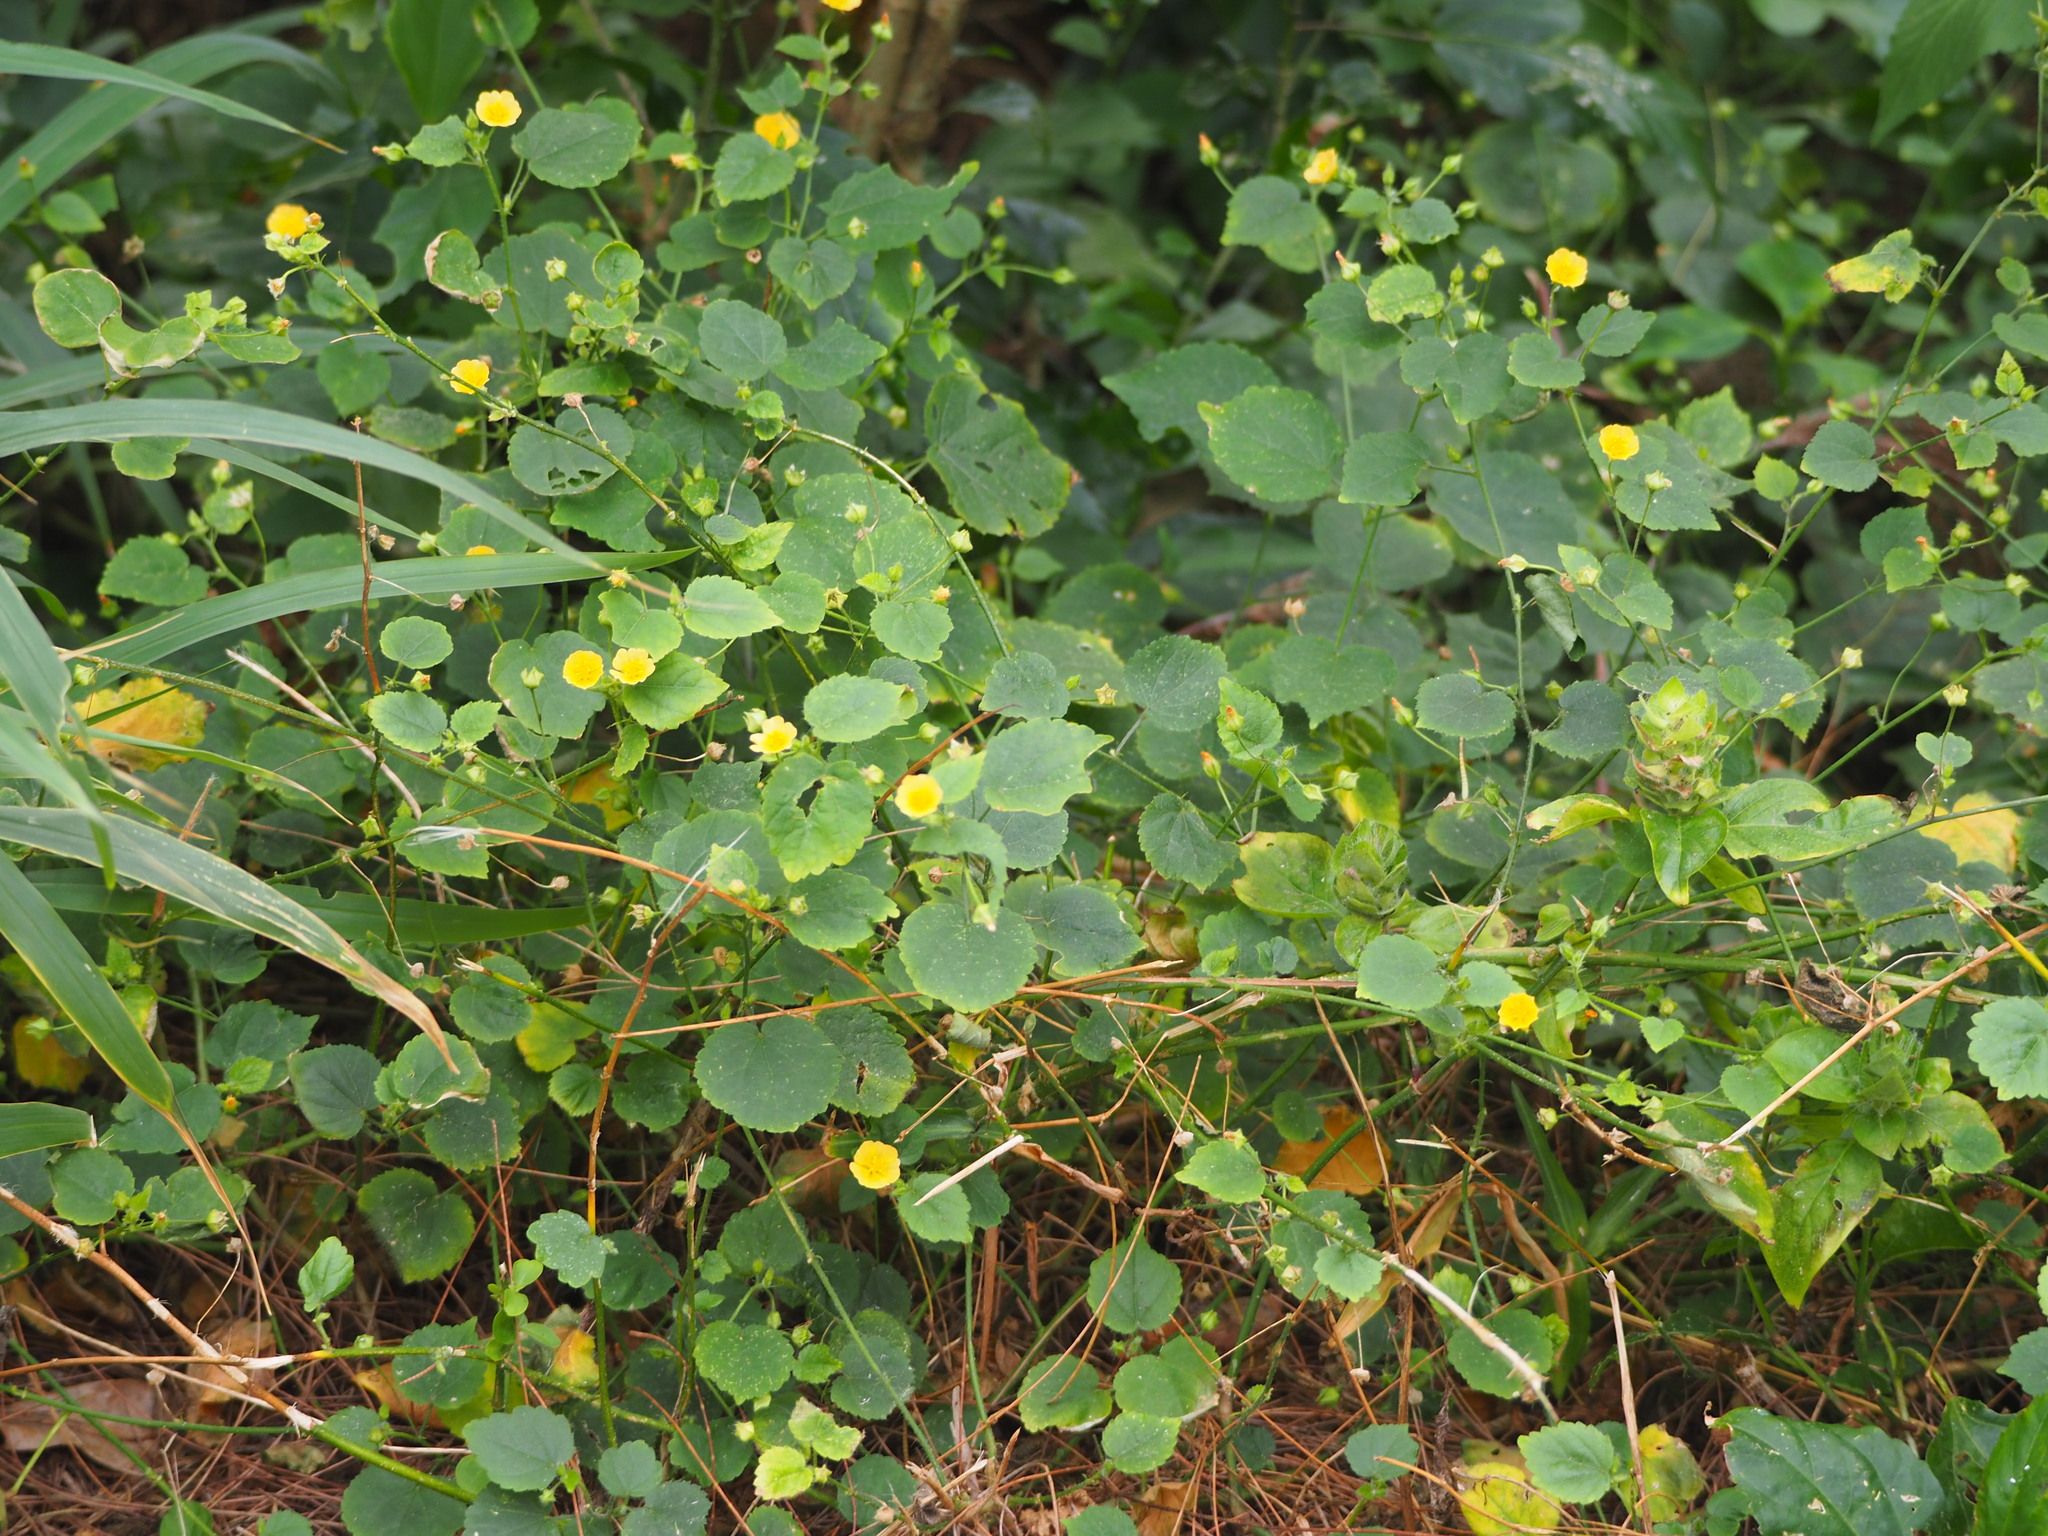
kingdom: Plantae
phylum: Tracheophyta
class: Magnoliopsida
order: Malvales
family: Malvaceae
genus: Sida
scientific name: Sida cordata
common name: Long-stalk sida
